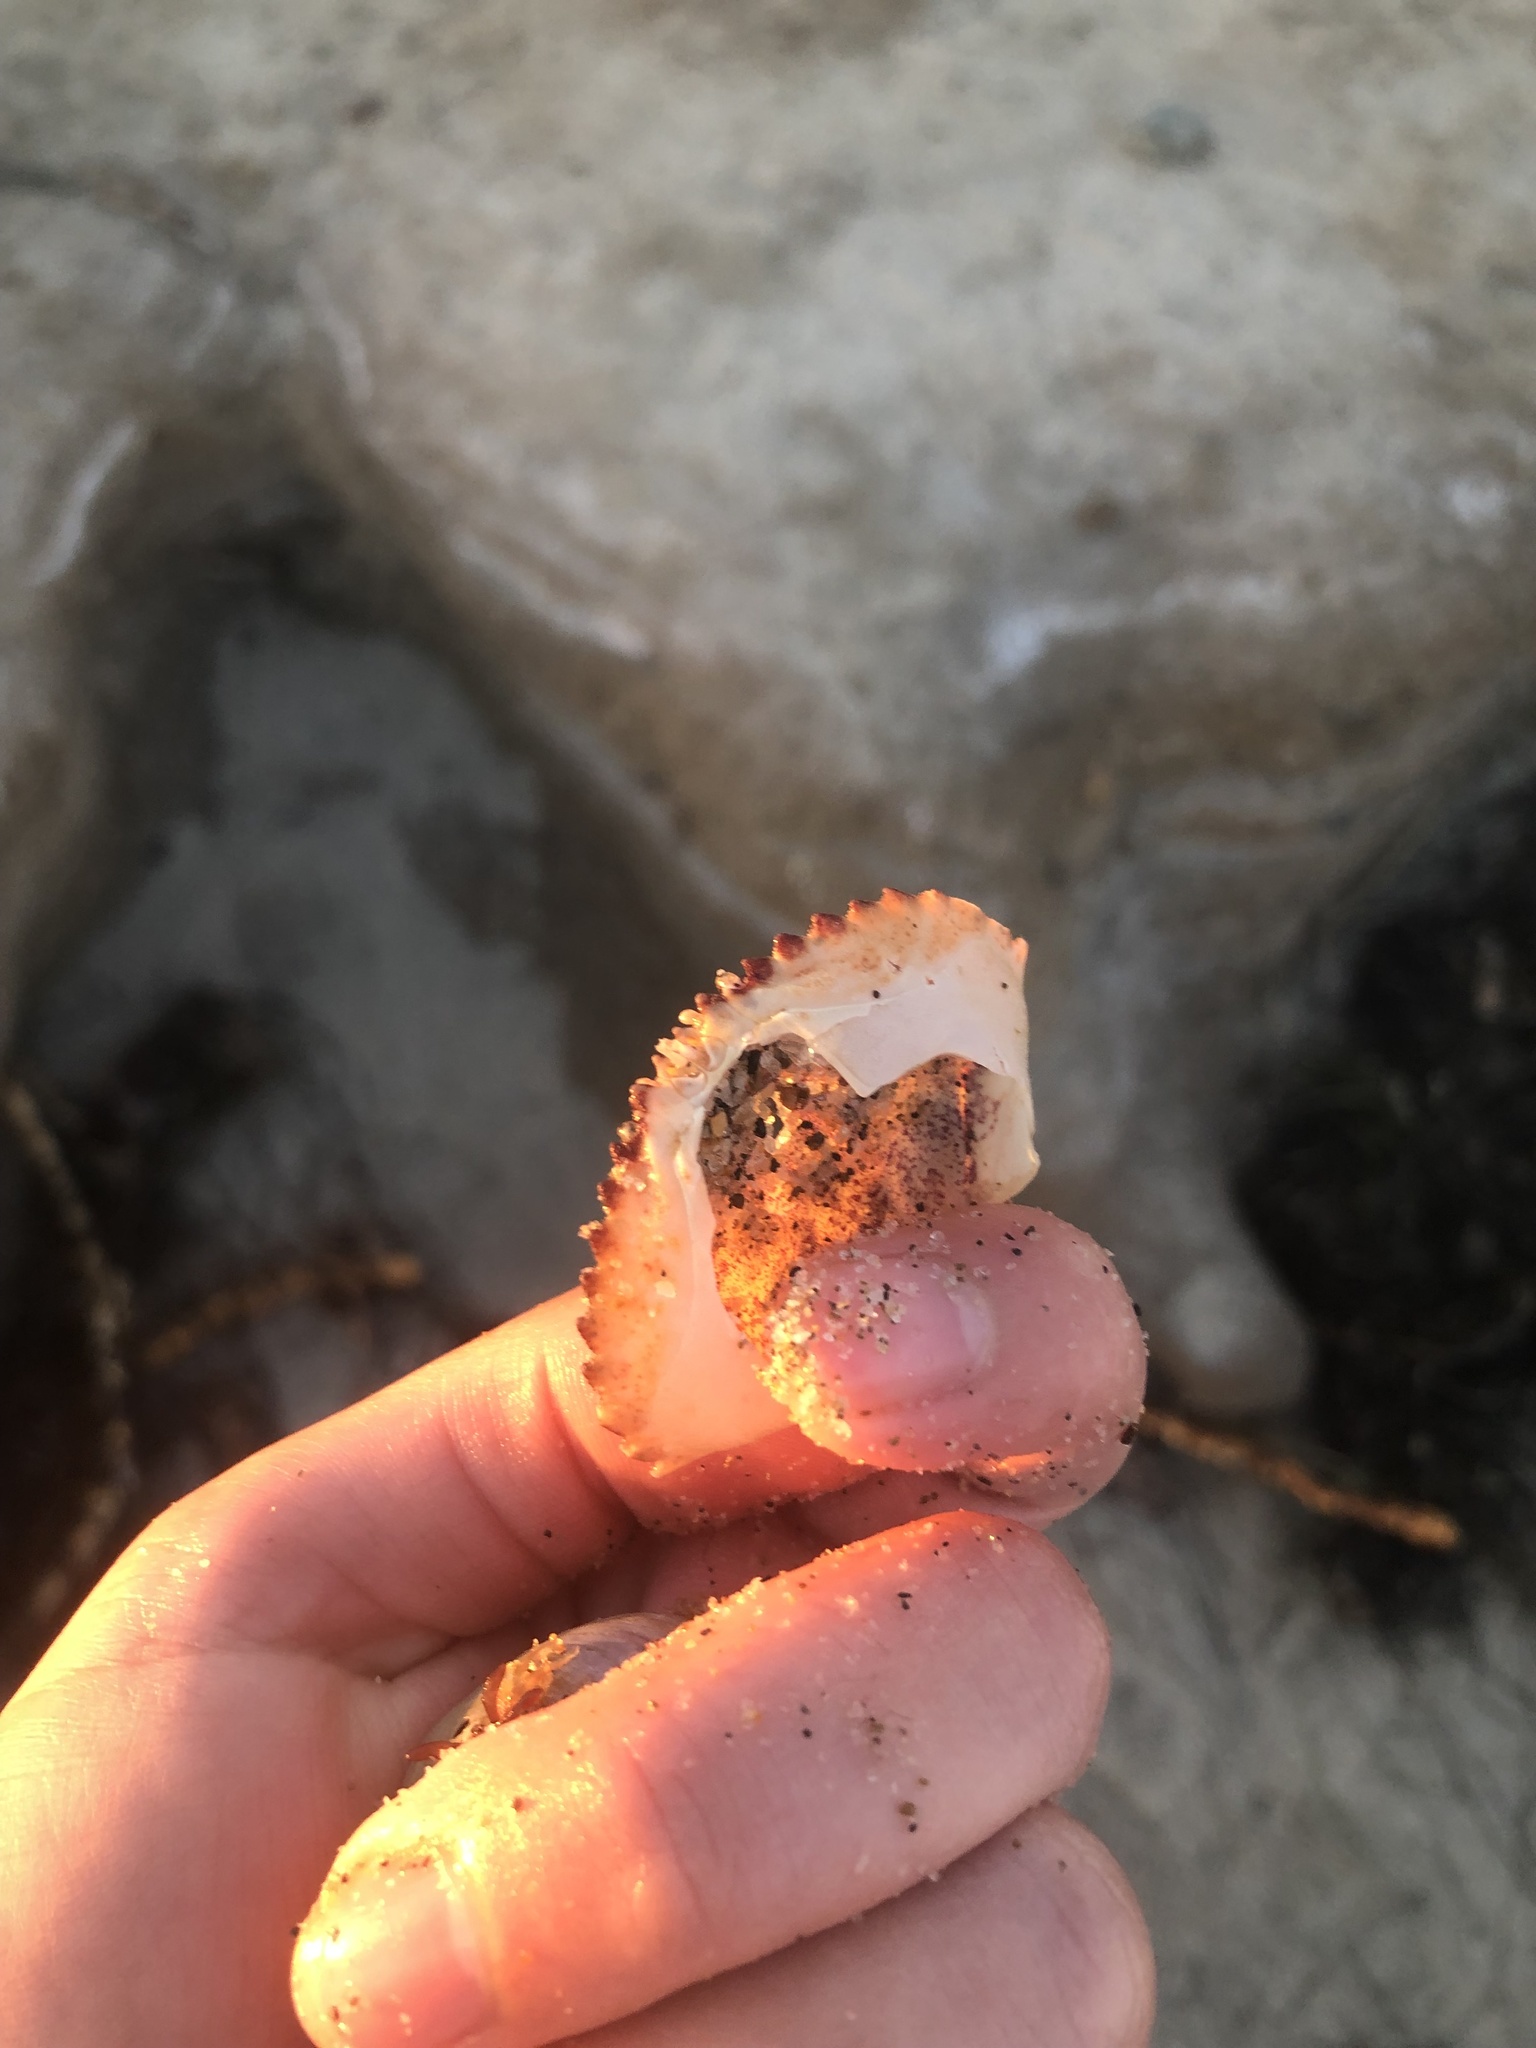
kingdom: Animalia
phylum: Arthropoda
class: Malacostraca
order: Decapoda
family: Cancridae
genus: Metacarcinus
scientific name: Metacarcinus anthonyi
